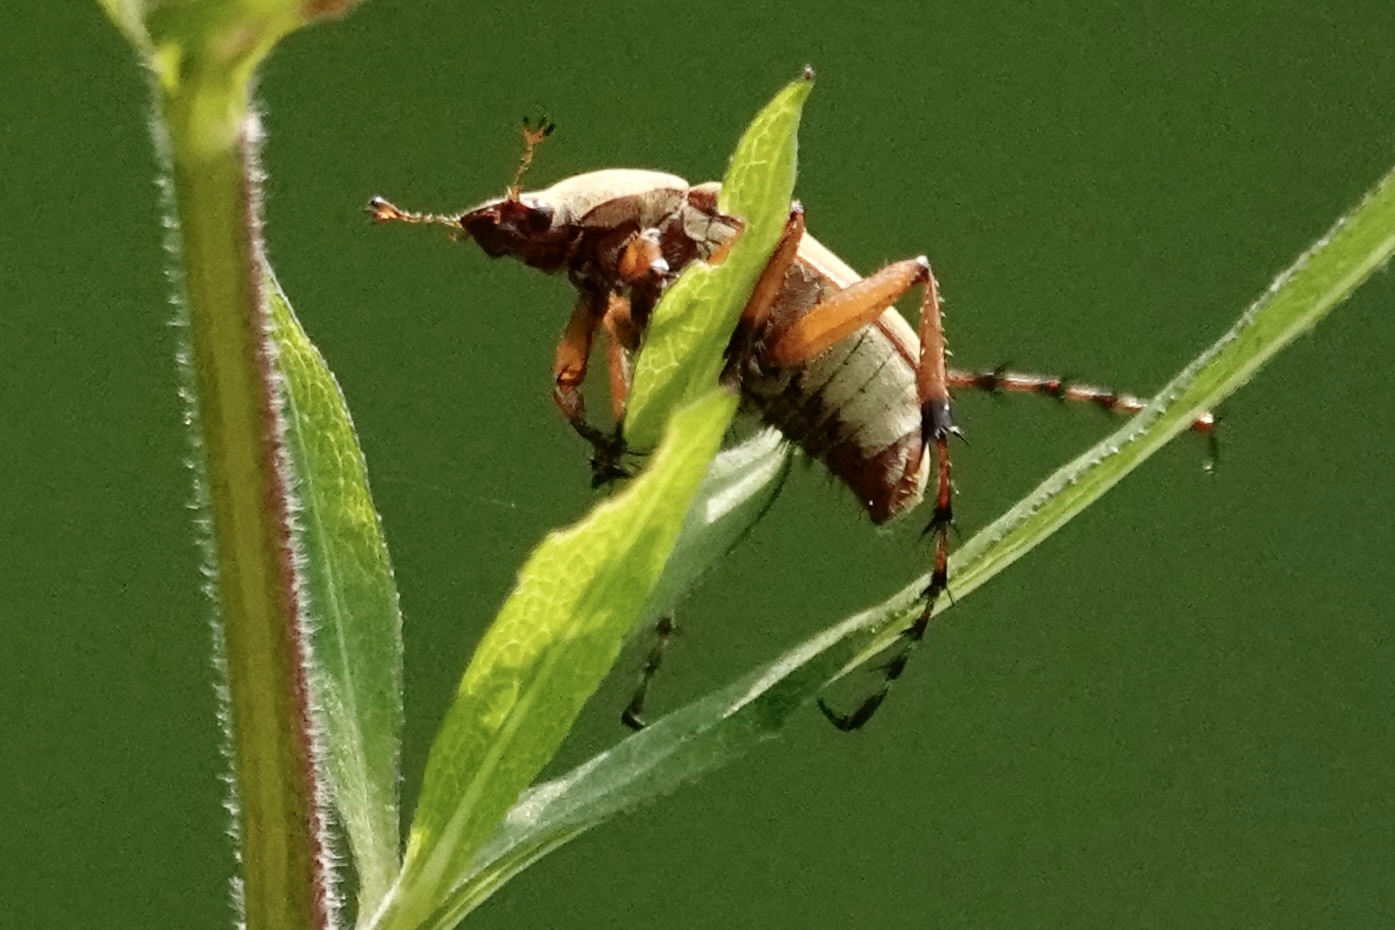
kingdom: Animalia
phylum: Arthropoda
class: Insecta
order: Coleoptera
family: Scarabaeidae
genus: Macrodactylus
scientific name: Macrodactylus subspinosus
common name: American rose chafer
